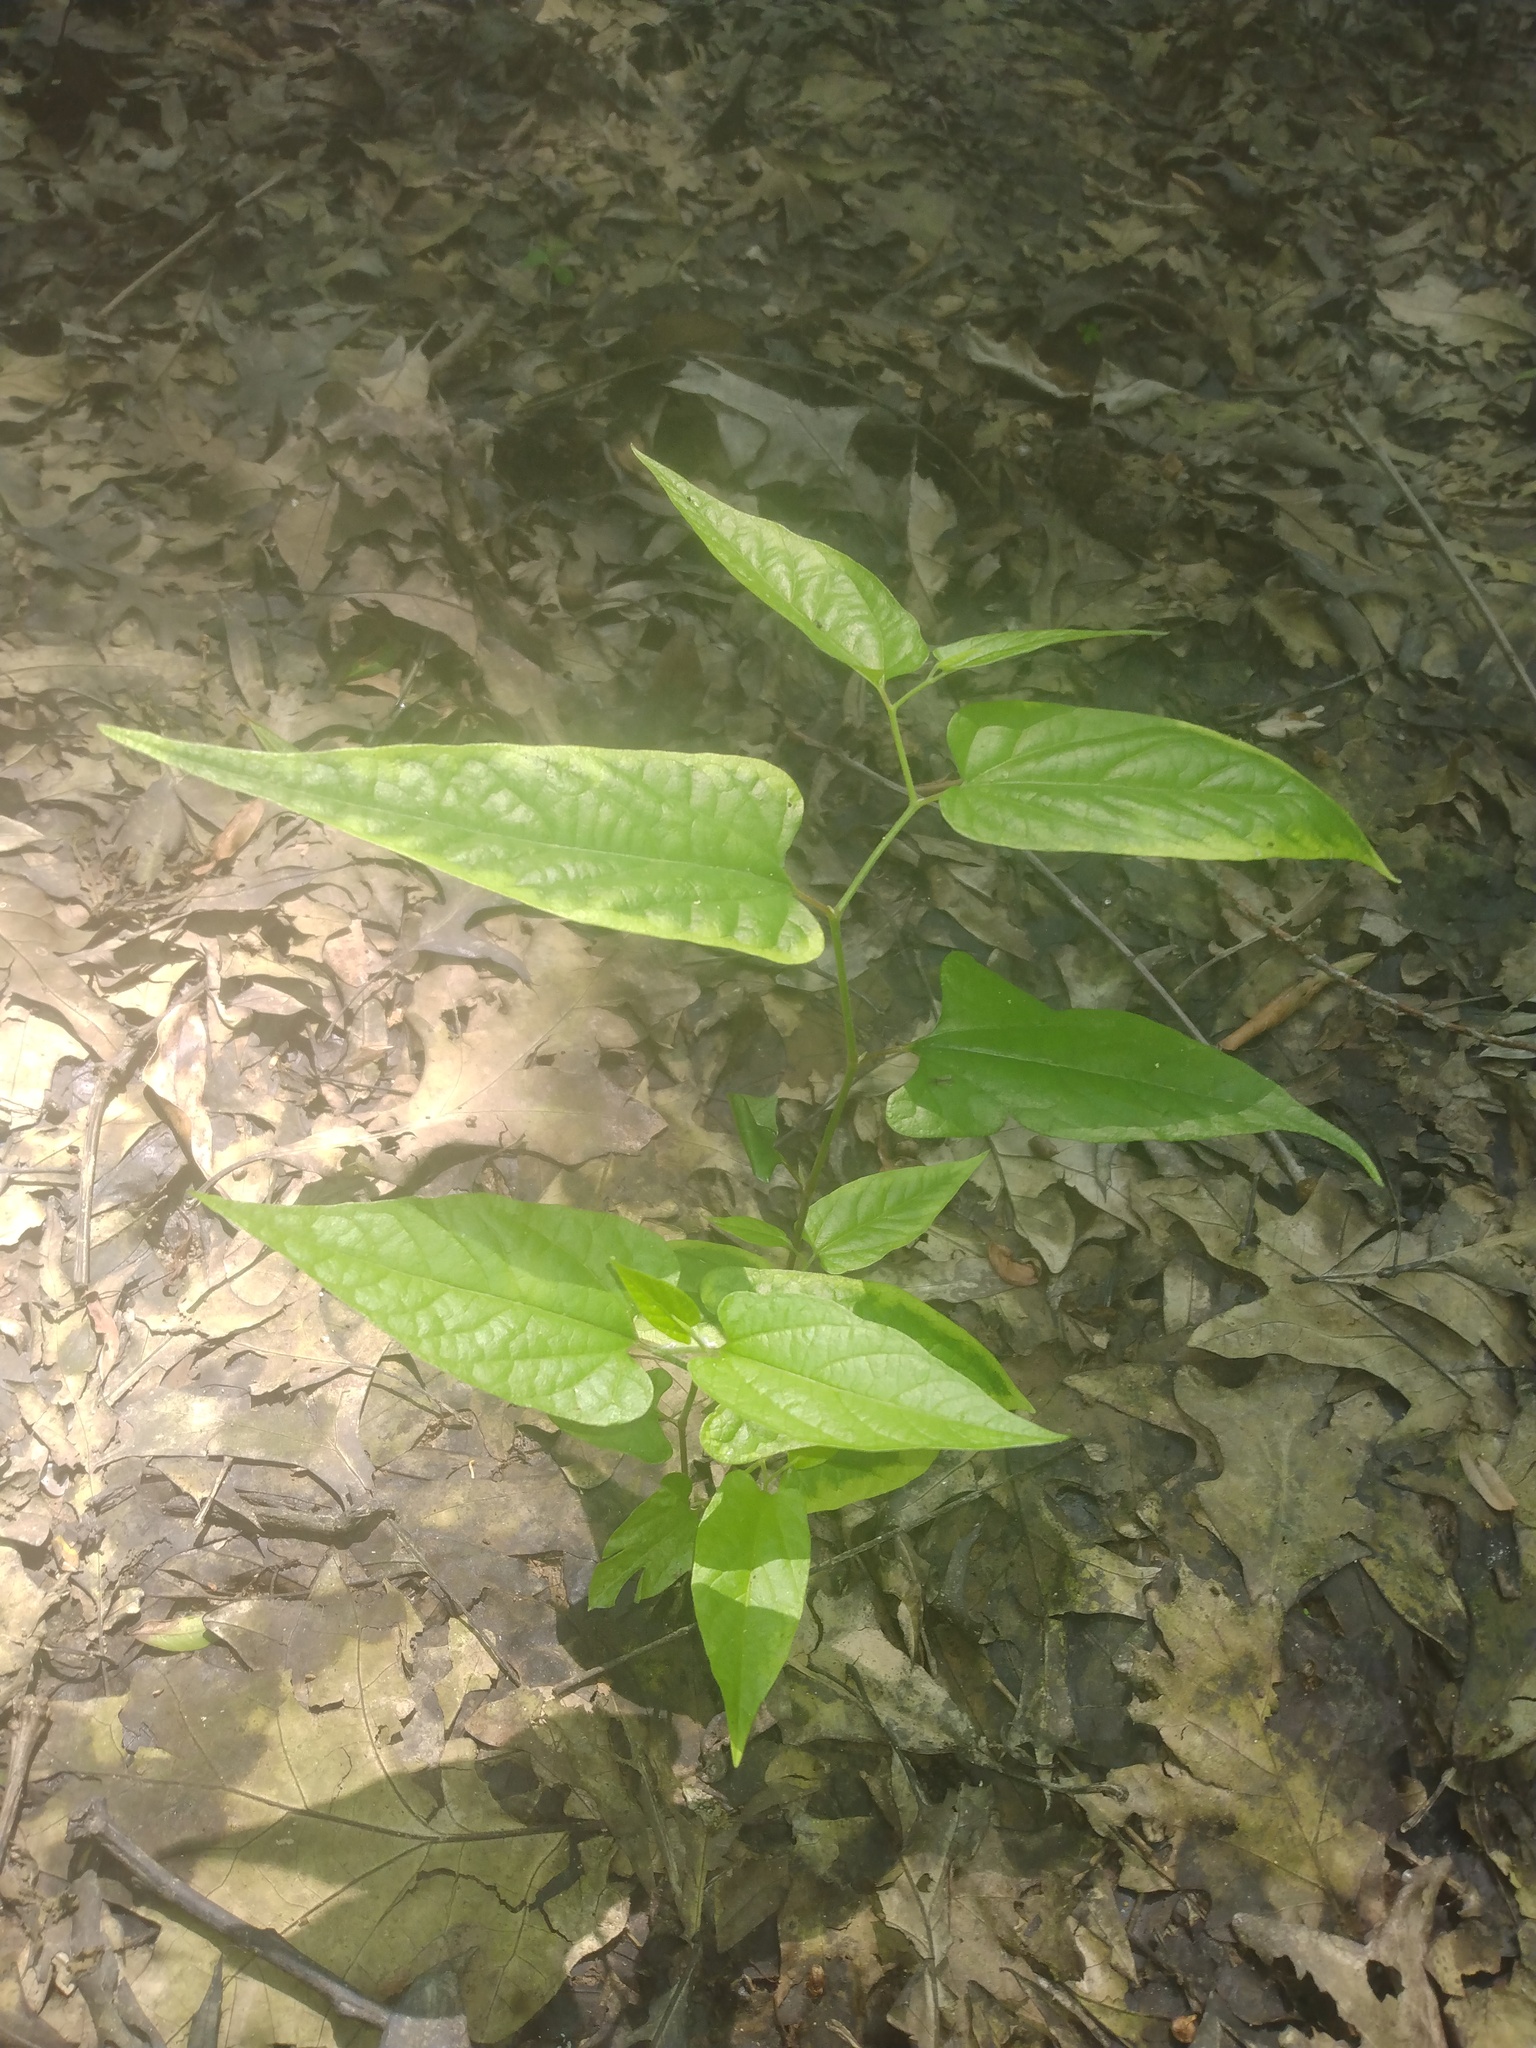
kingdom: Plantae
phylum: Tracheophyta
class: Magnoliopsida
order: Piperales
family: Aristolochiaceae
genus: Endodeca
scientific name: Endodeca serpentaria
